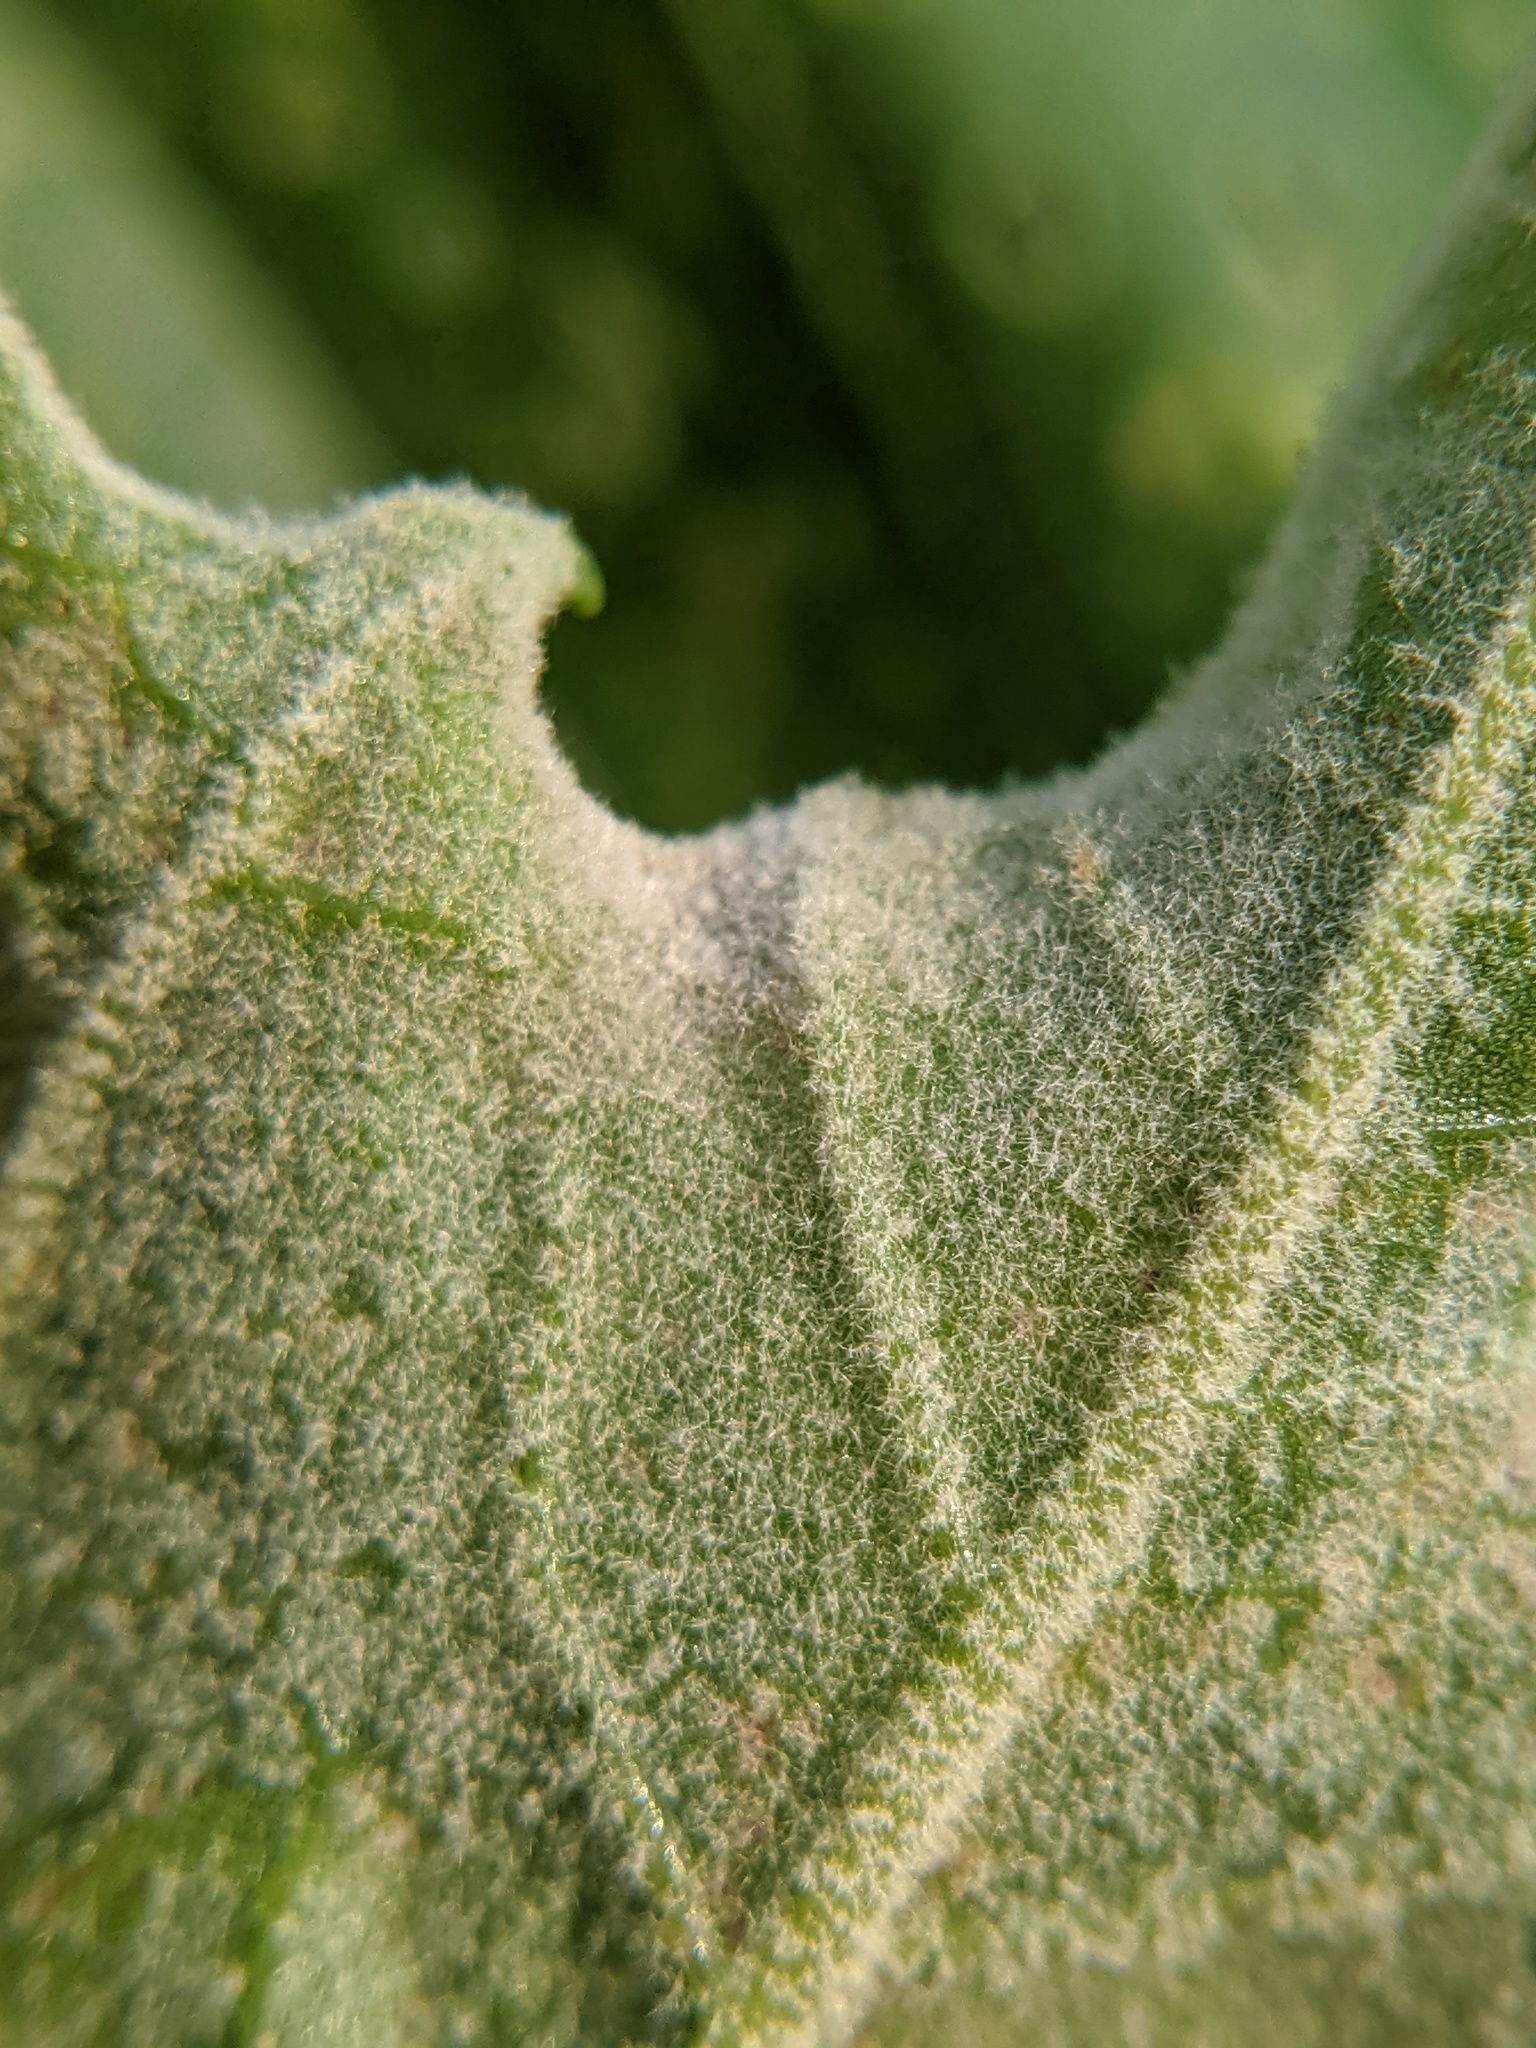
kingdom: Fungi
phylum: Ascomycota
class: Leotiomycetes
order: Helotiales
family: Erysiphaceae
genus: Erysiphe
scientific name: Erysiphe platani
